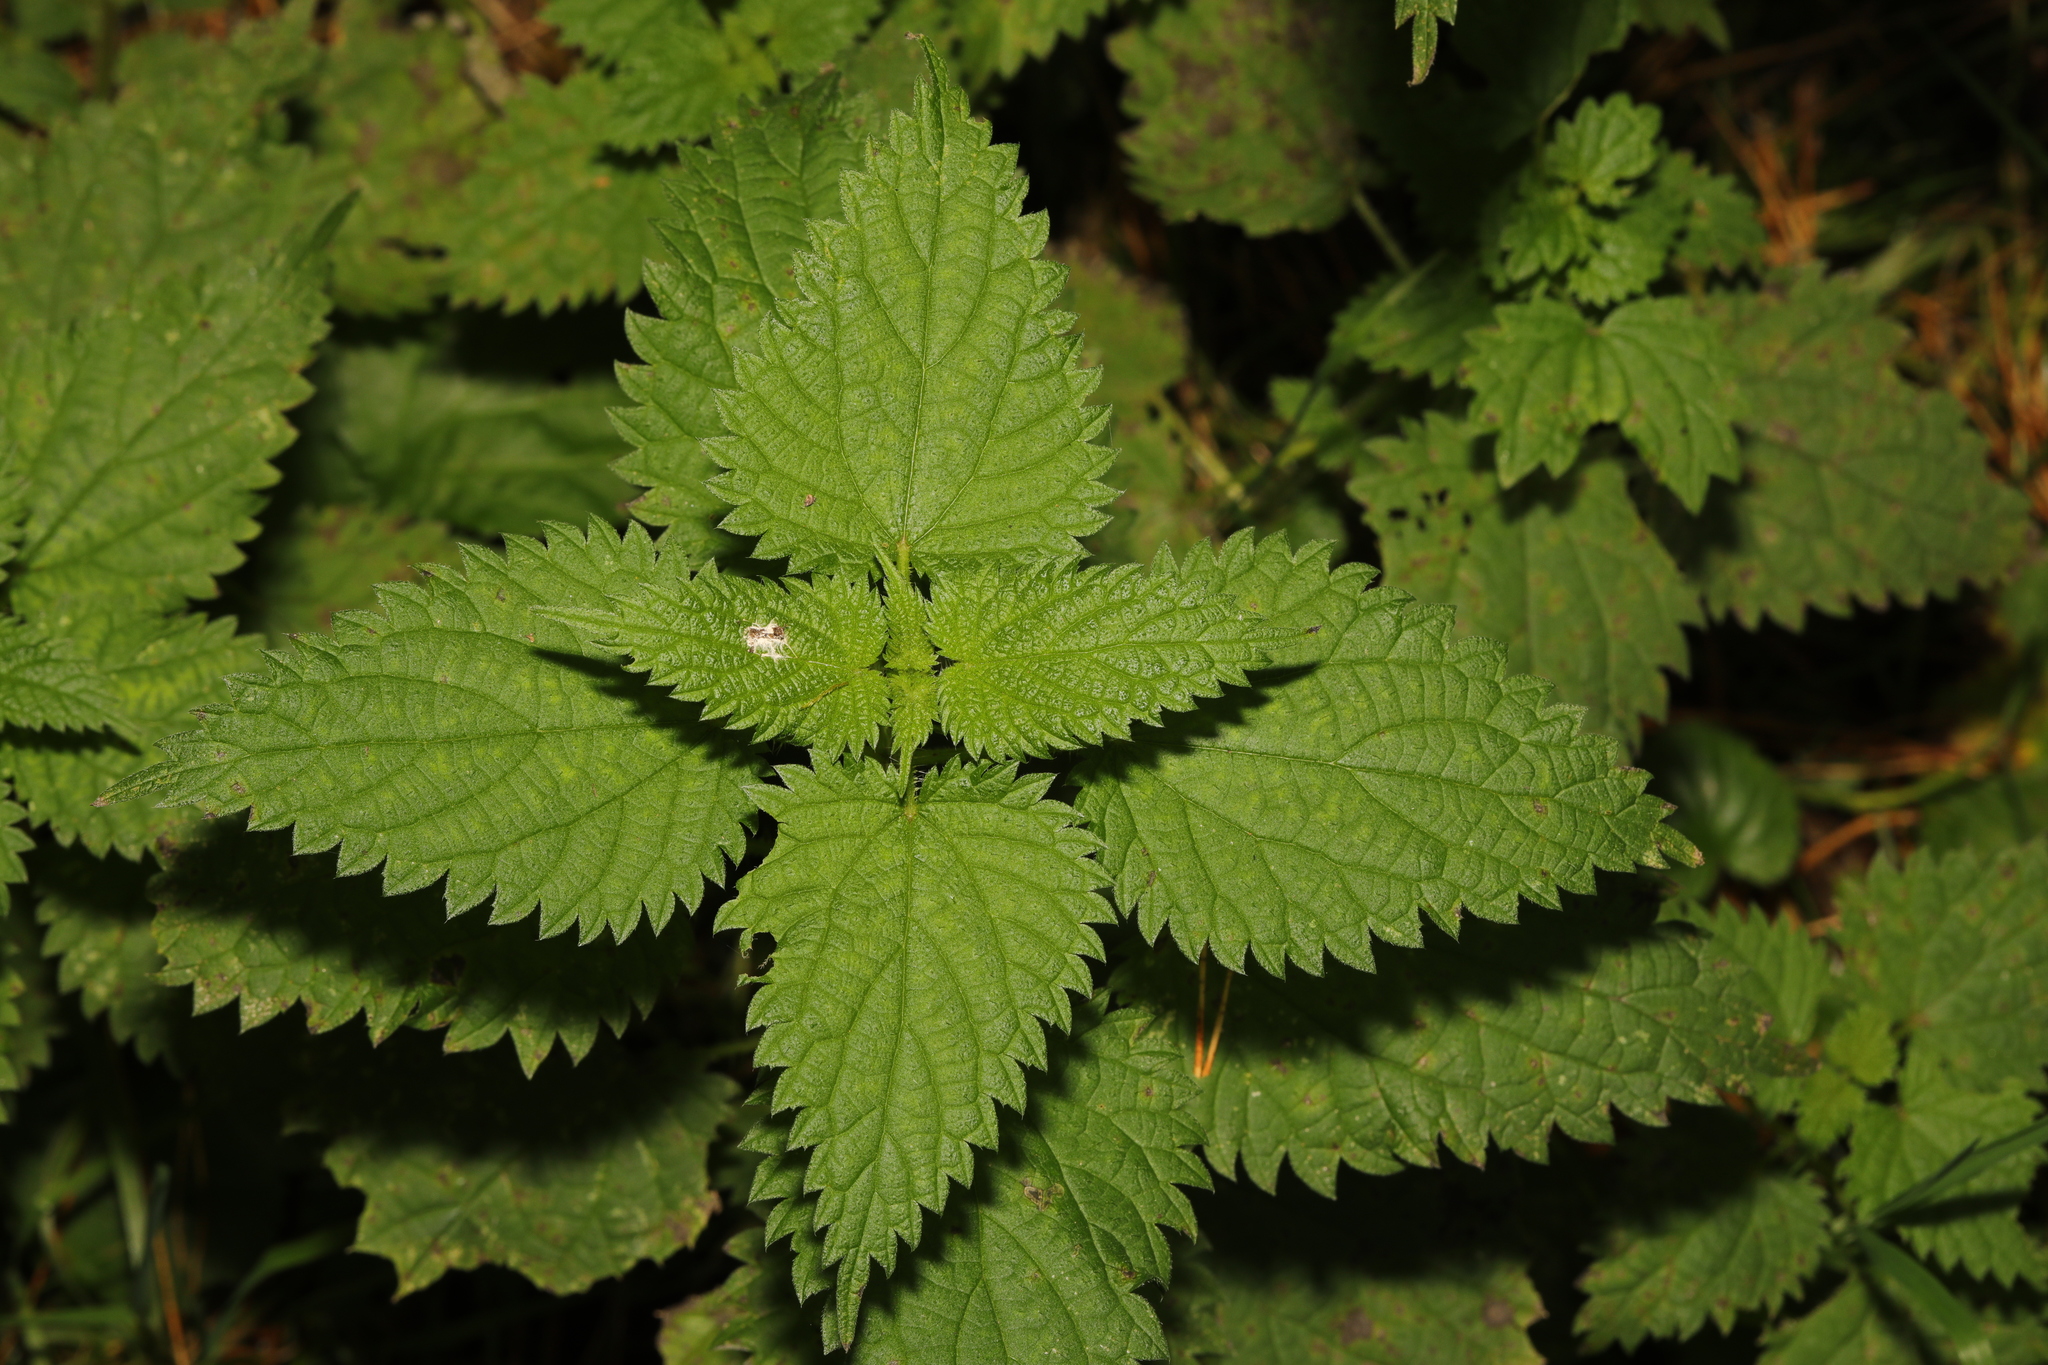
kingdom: Plantae
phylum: Tracheophyta
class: Magnoliopsida
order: Rosales
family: Urticaceae
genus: Urtica
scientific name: Urtica dioica
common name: Common nettle
